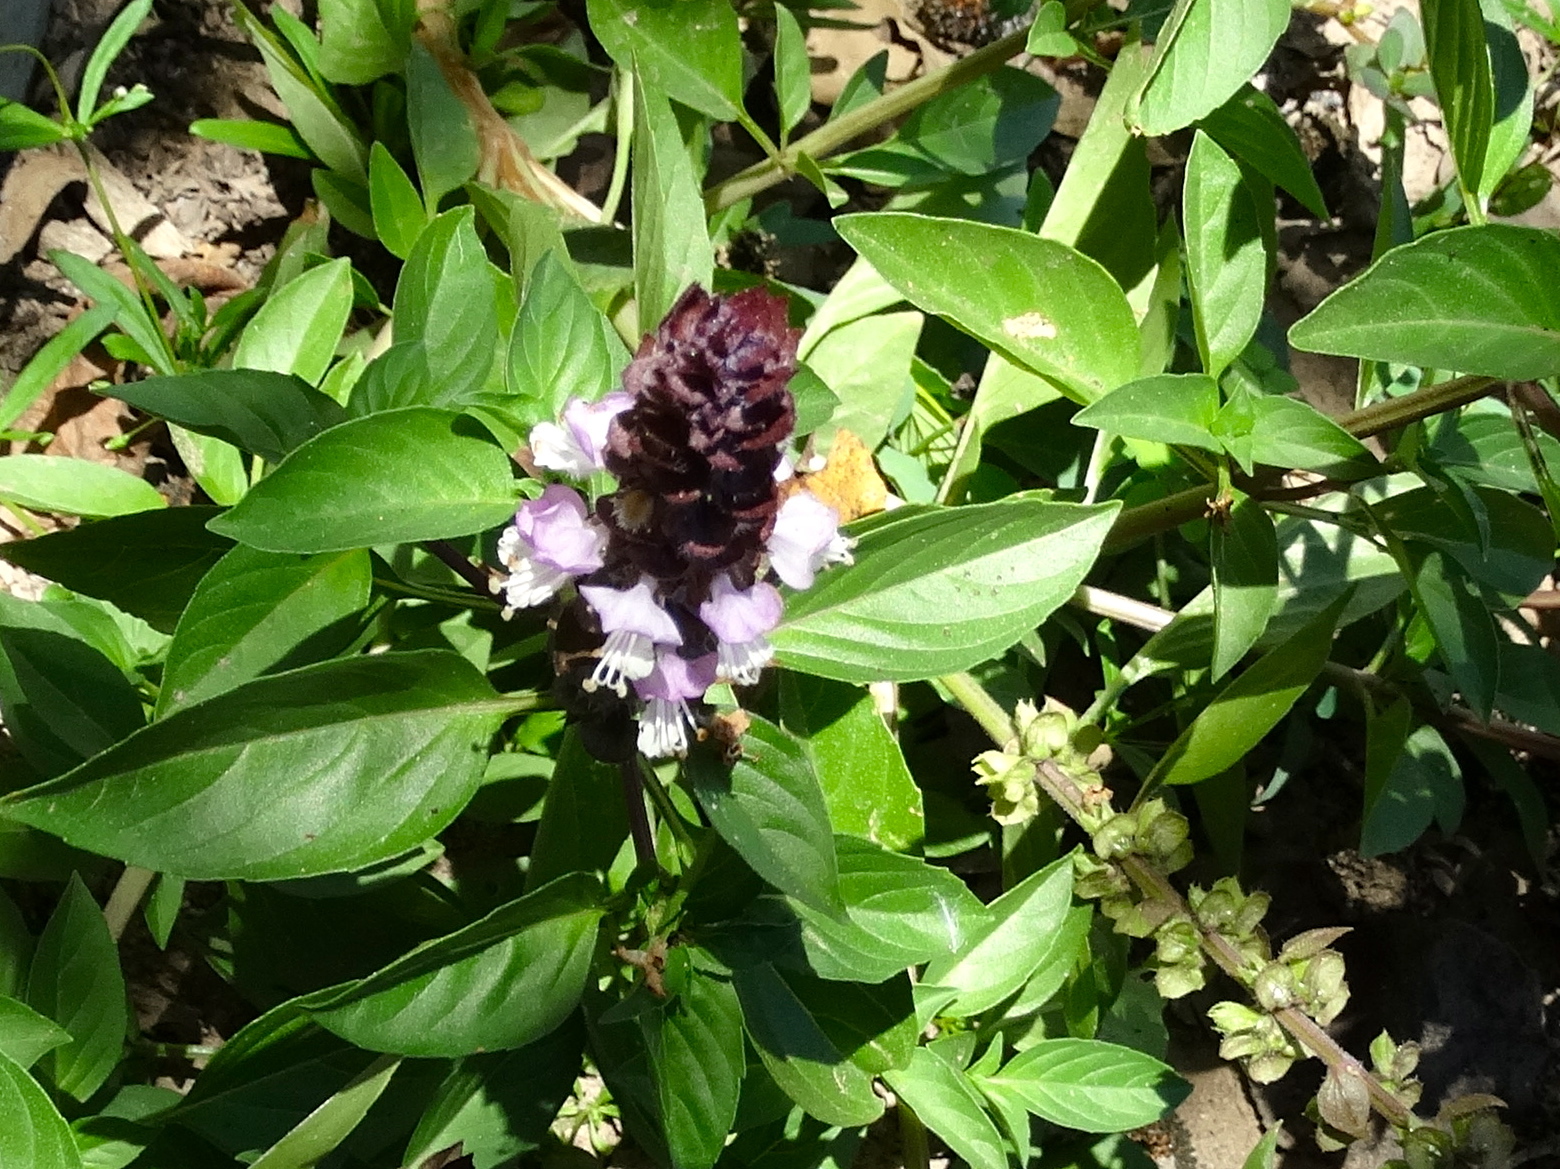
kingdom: Plantae
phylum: Tracheophyta
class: Magnoliopsida
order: Lamiales
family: Lamiaceae
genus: Ocimum
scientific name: Ocimum basilicum
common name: Sweet basil
